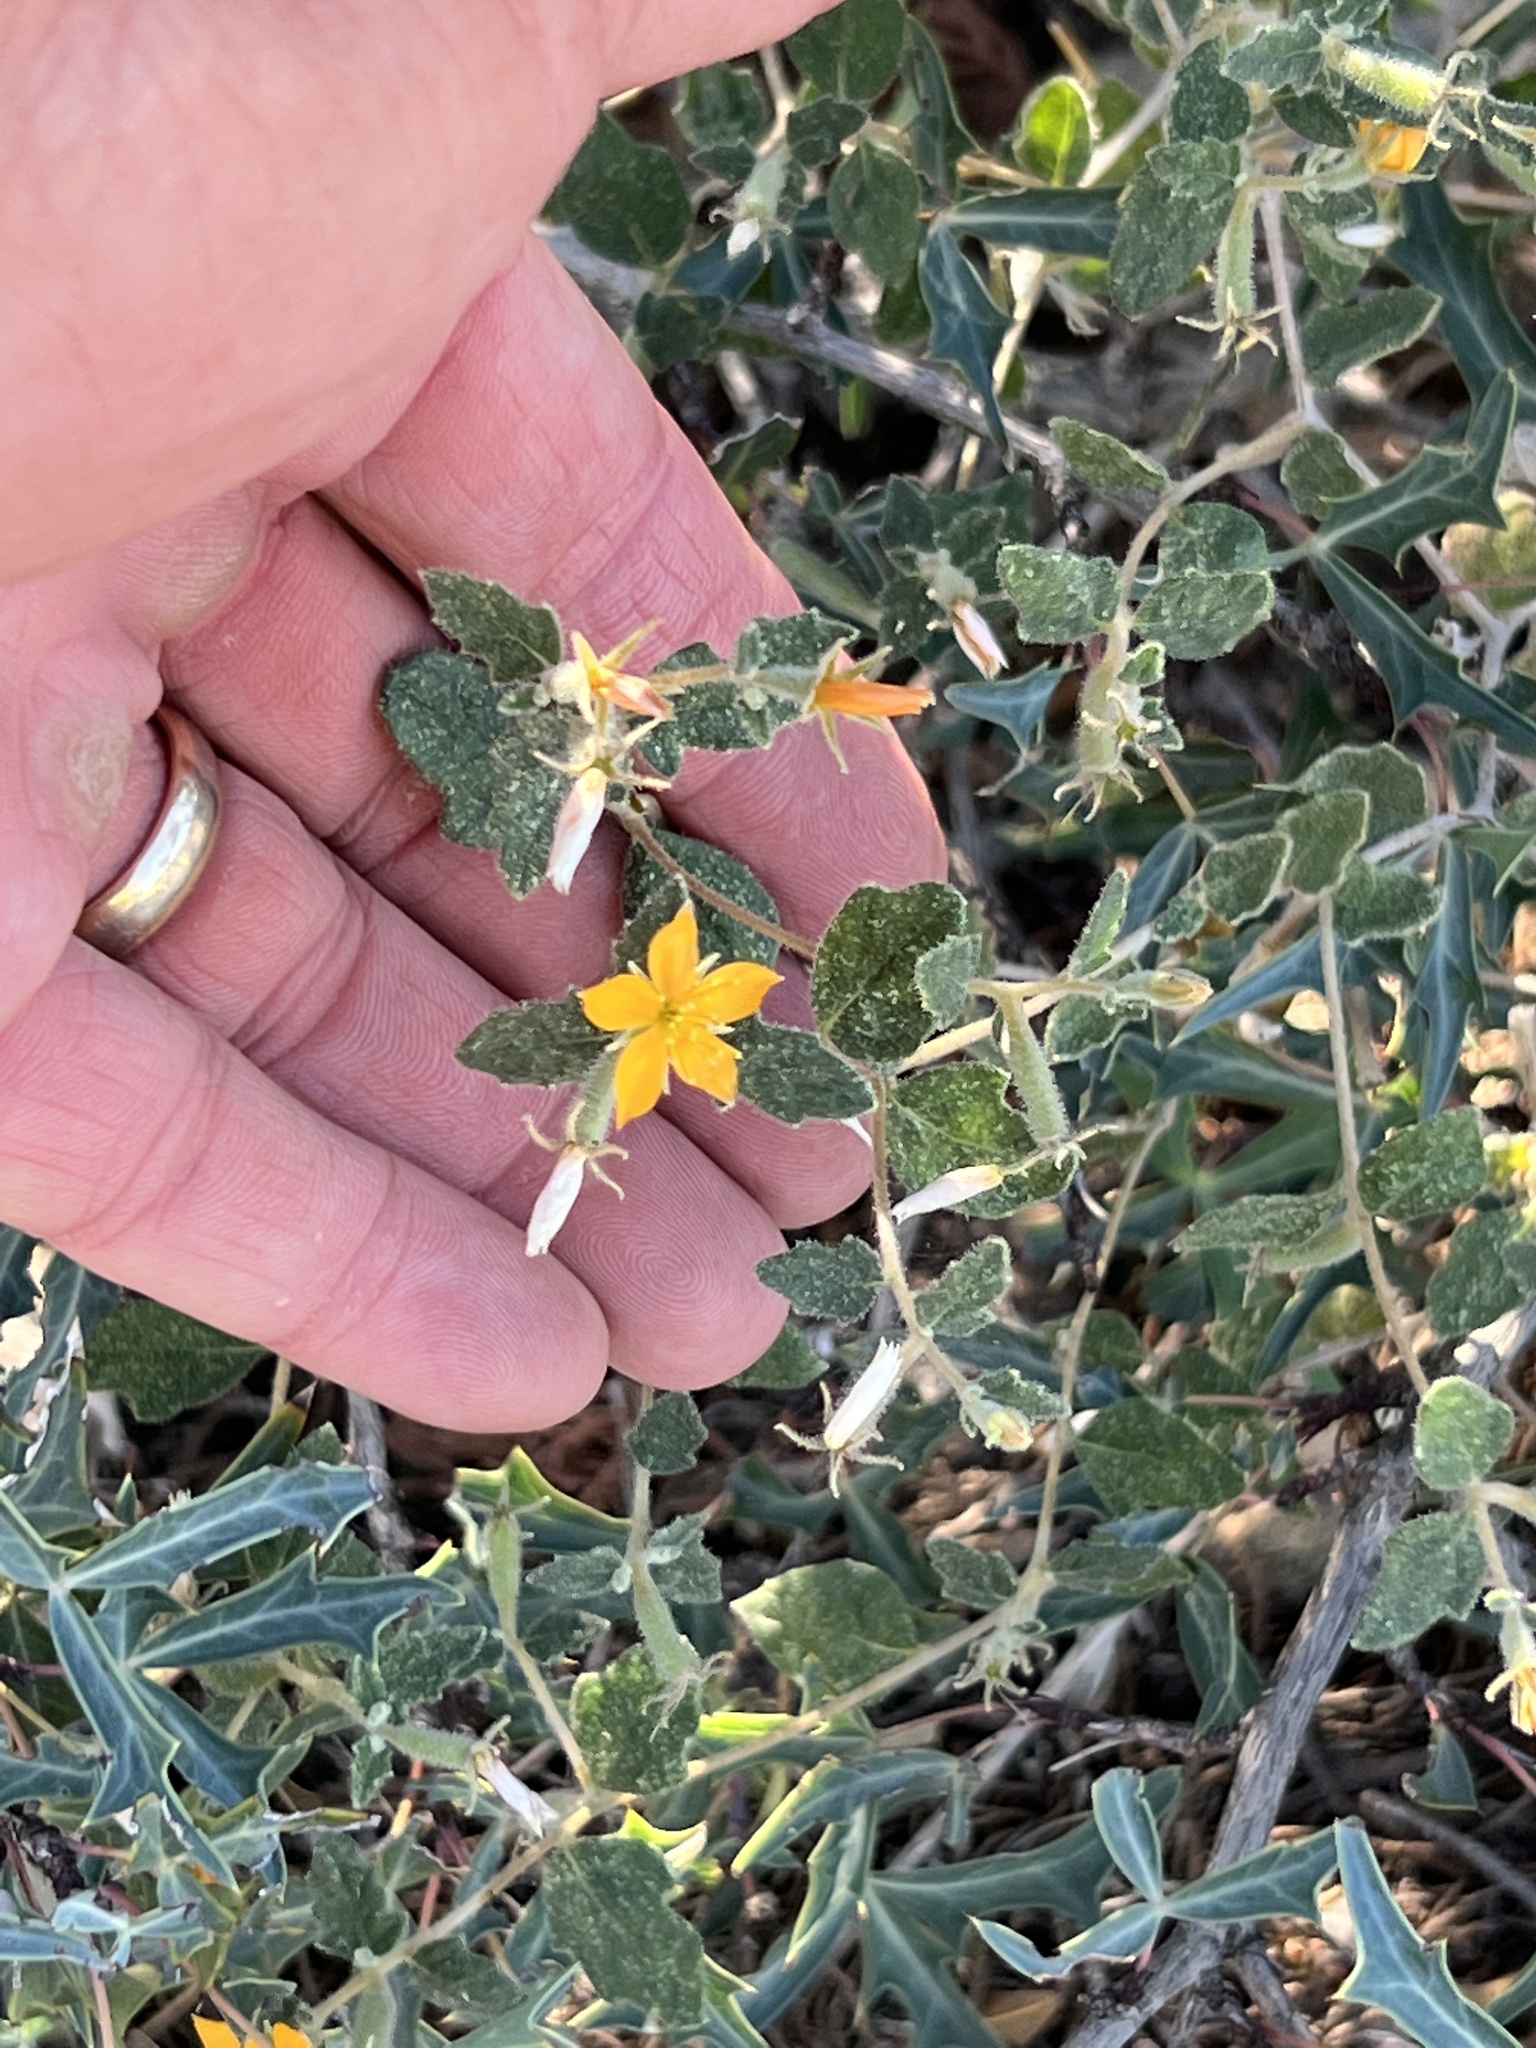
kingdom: Plantae
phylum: Tracheophyta
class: Magnoliopsida
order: Cornales
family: Loasaceae
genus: Mentzelia
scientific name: Mentzelia oligosperma
